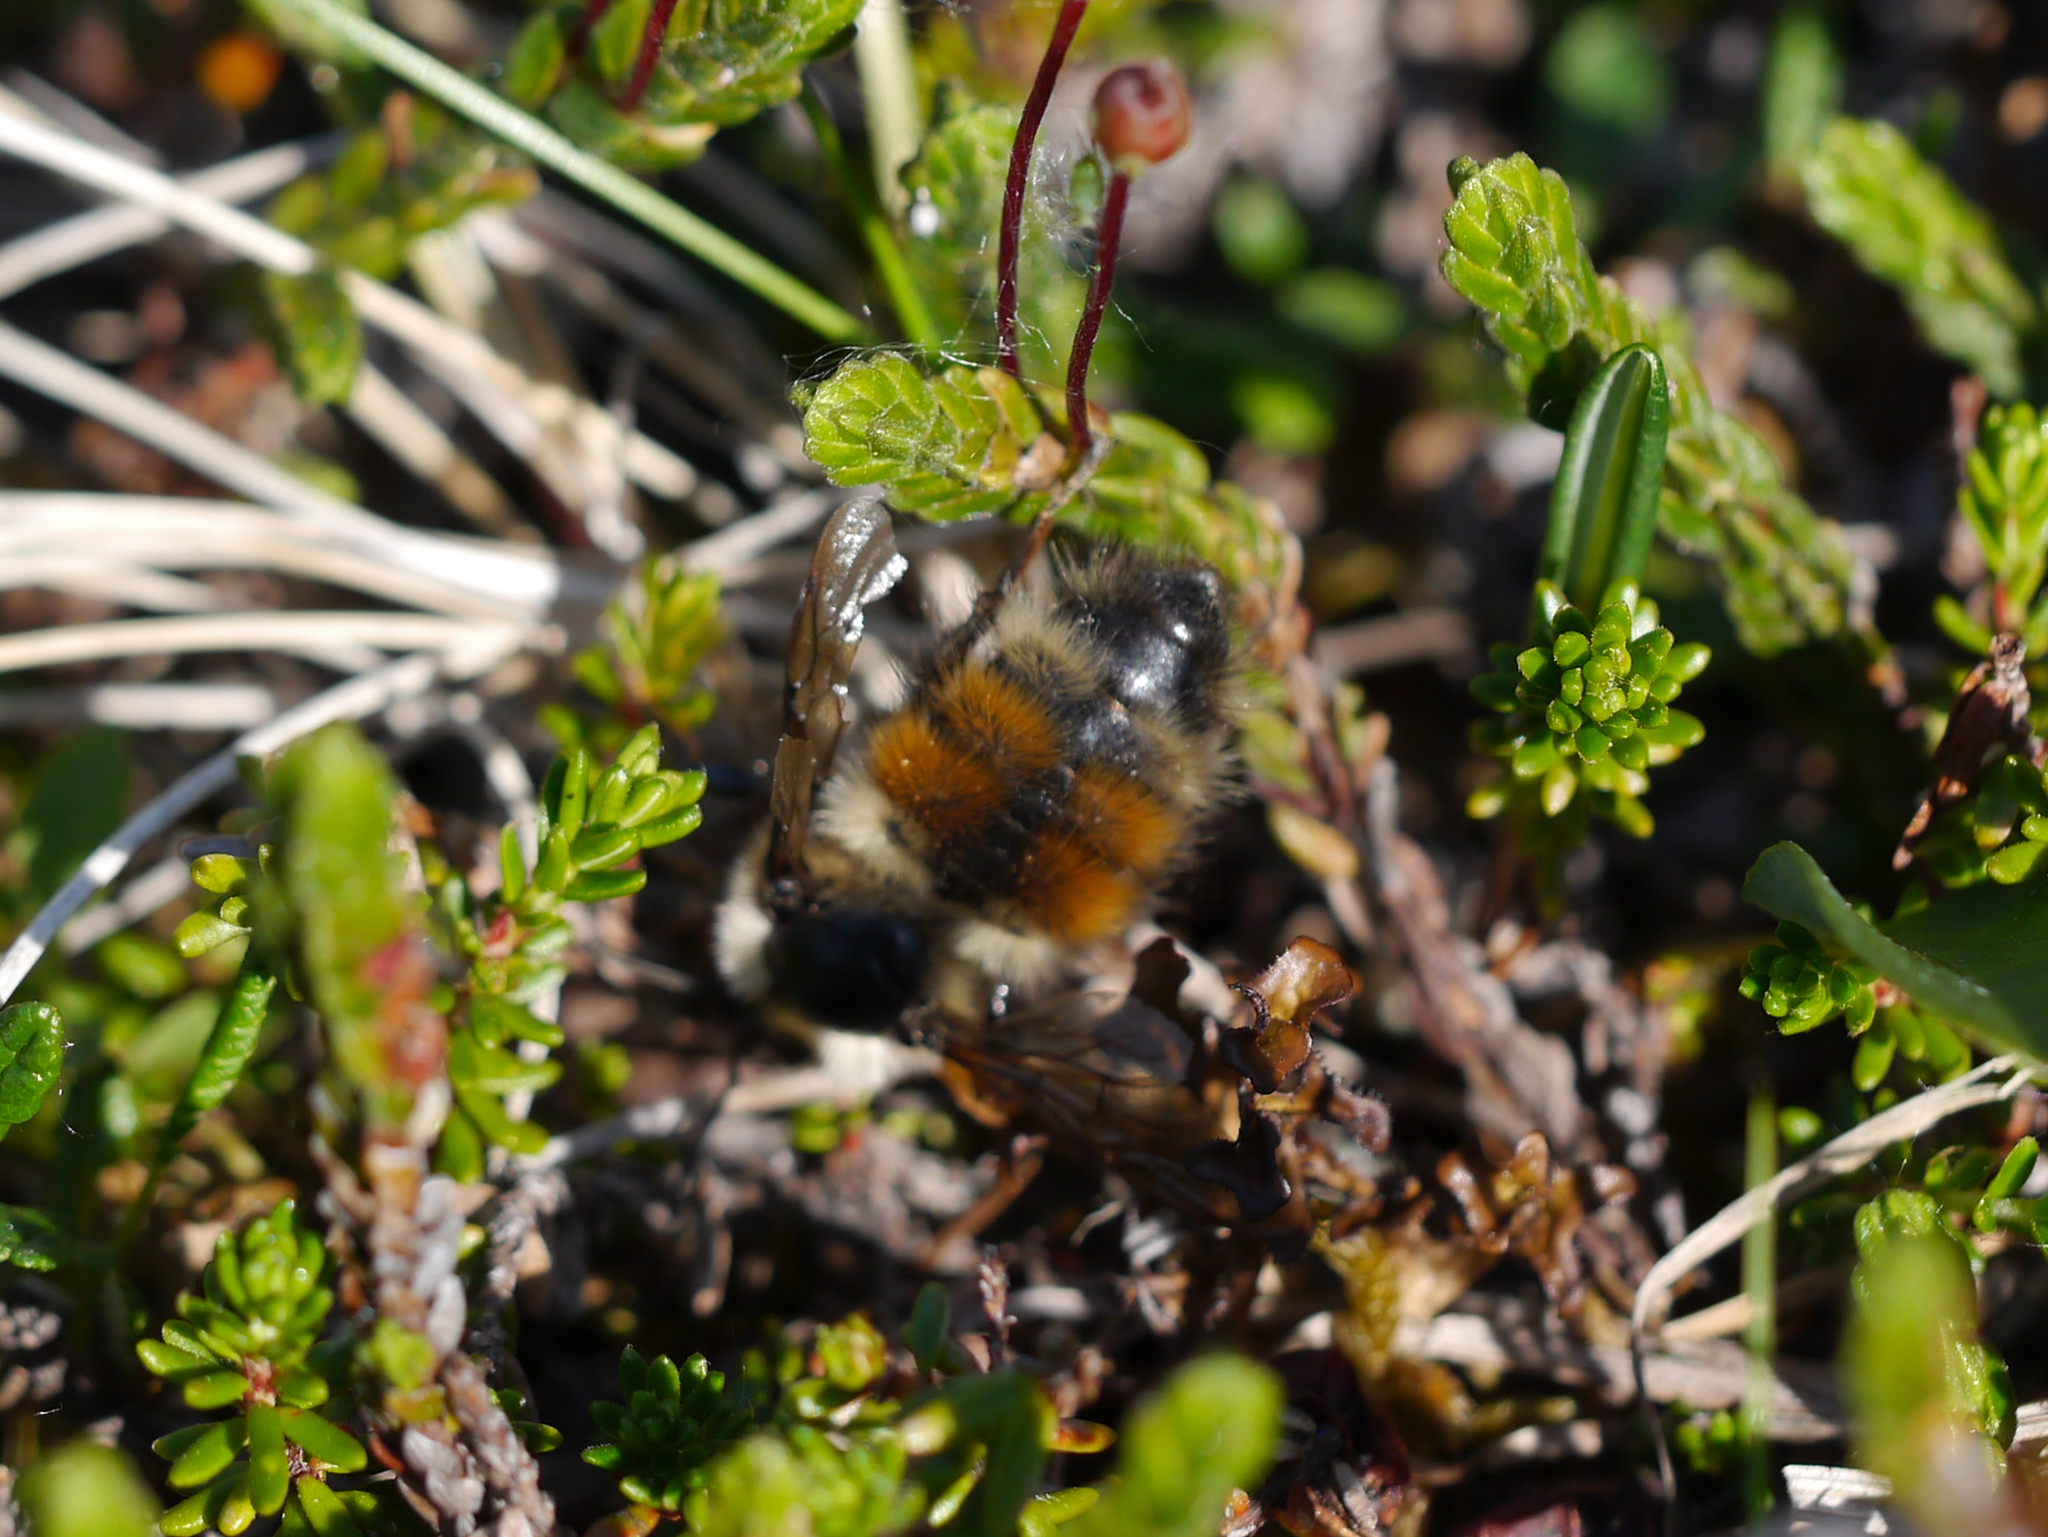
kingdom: Animalia
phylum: Arthropoda
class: Insecta
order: Hymenoptera
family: Apidae
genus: Bombus
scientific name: Bombus sylvicola
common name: Forest bumble bee
